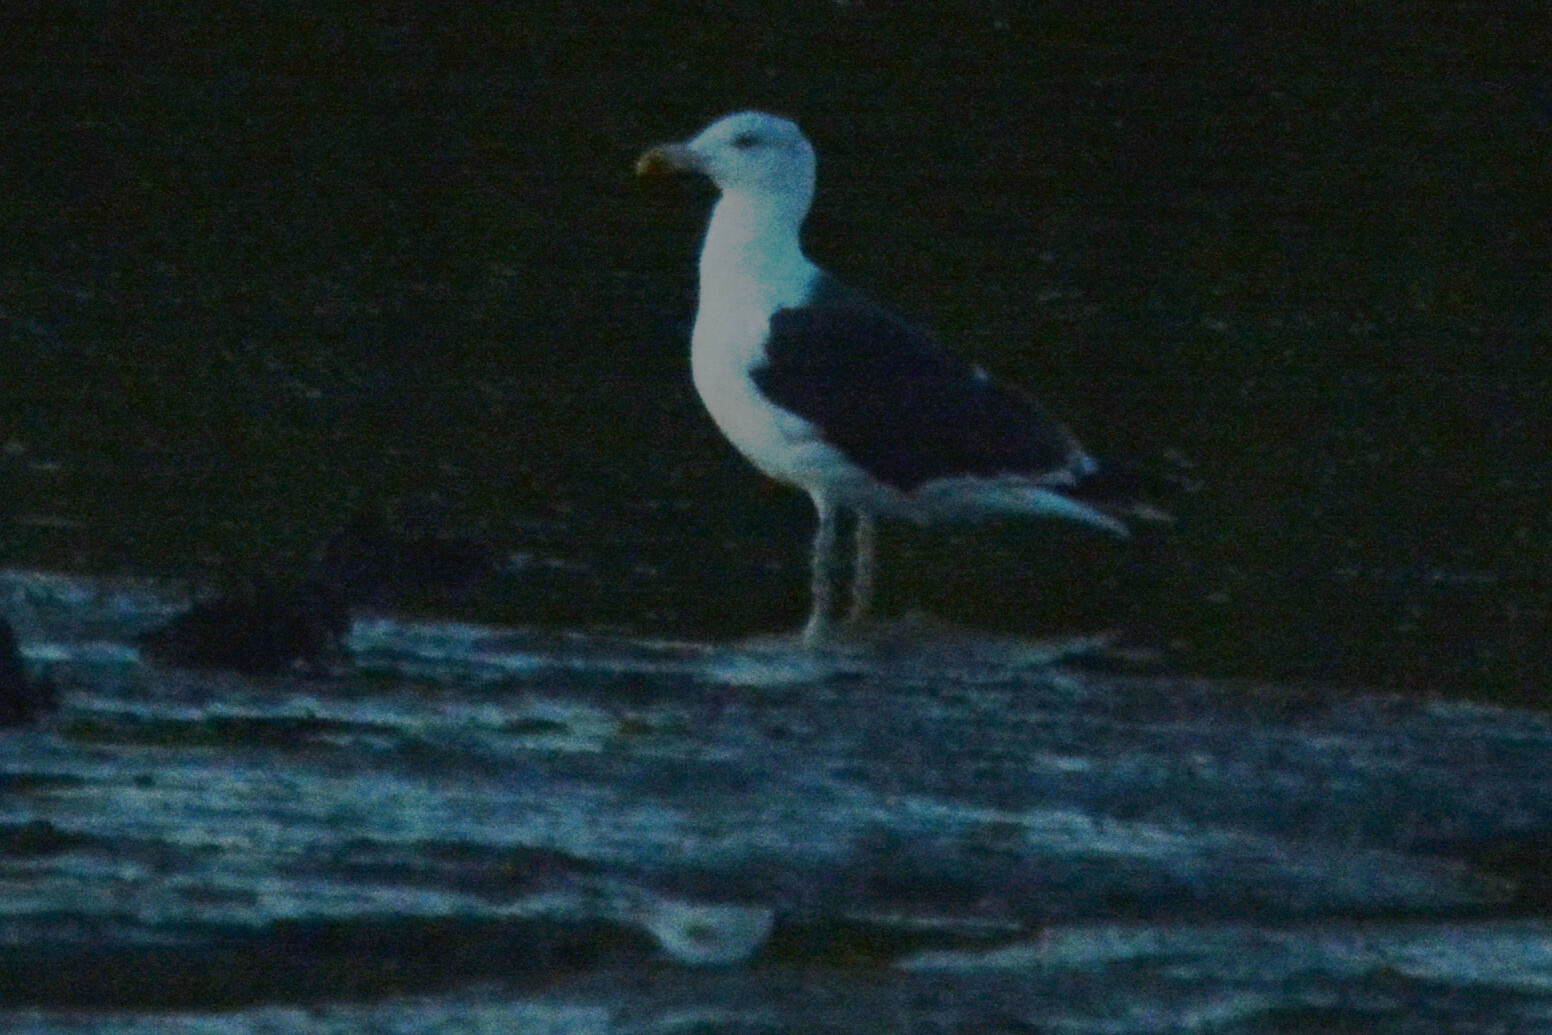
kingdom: Animalia
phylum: Chordata
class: Aves
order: Charadriiformes
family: Laridae
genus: Larus
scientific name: Larus marinus
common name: Great black-backed gull
